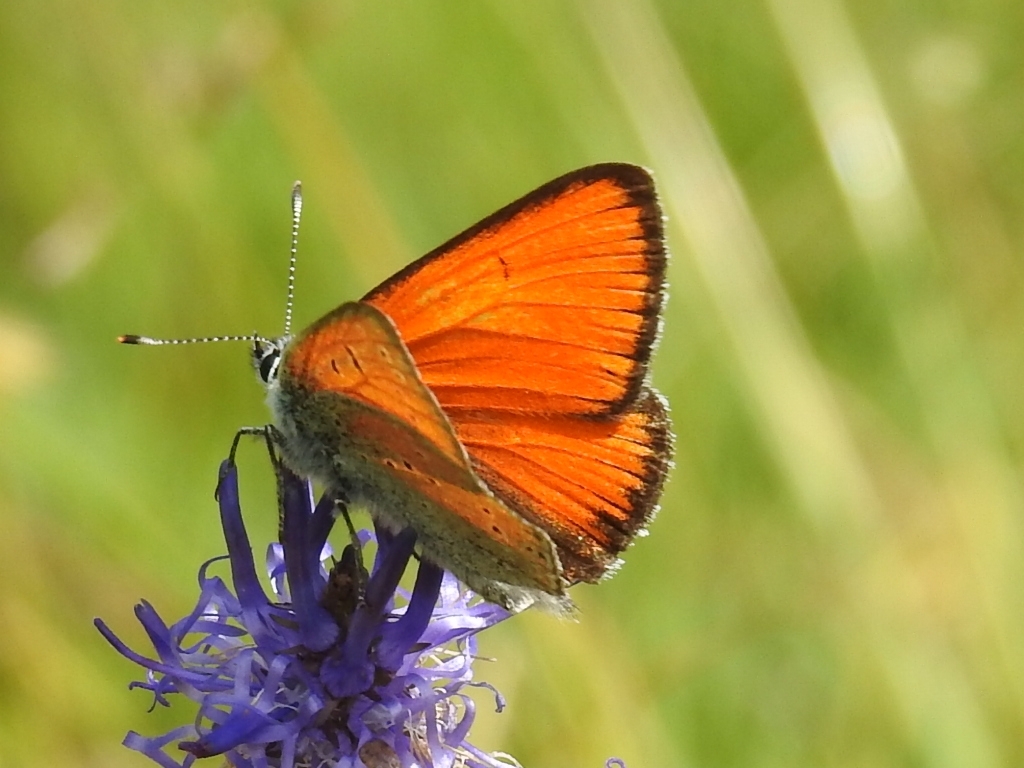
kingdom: Animalia
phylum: Arthropoda
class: Insecta
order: Lepidoptera
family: Lycaenidae
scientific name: Lycaenidae
